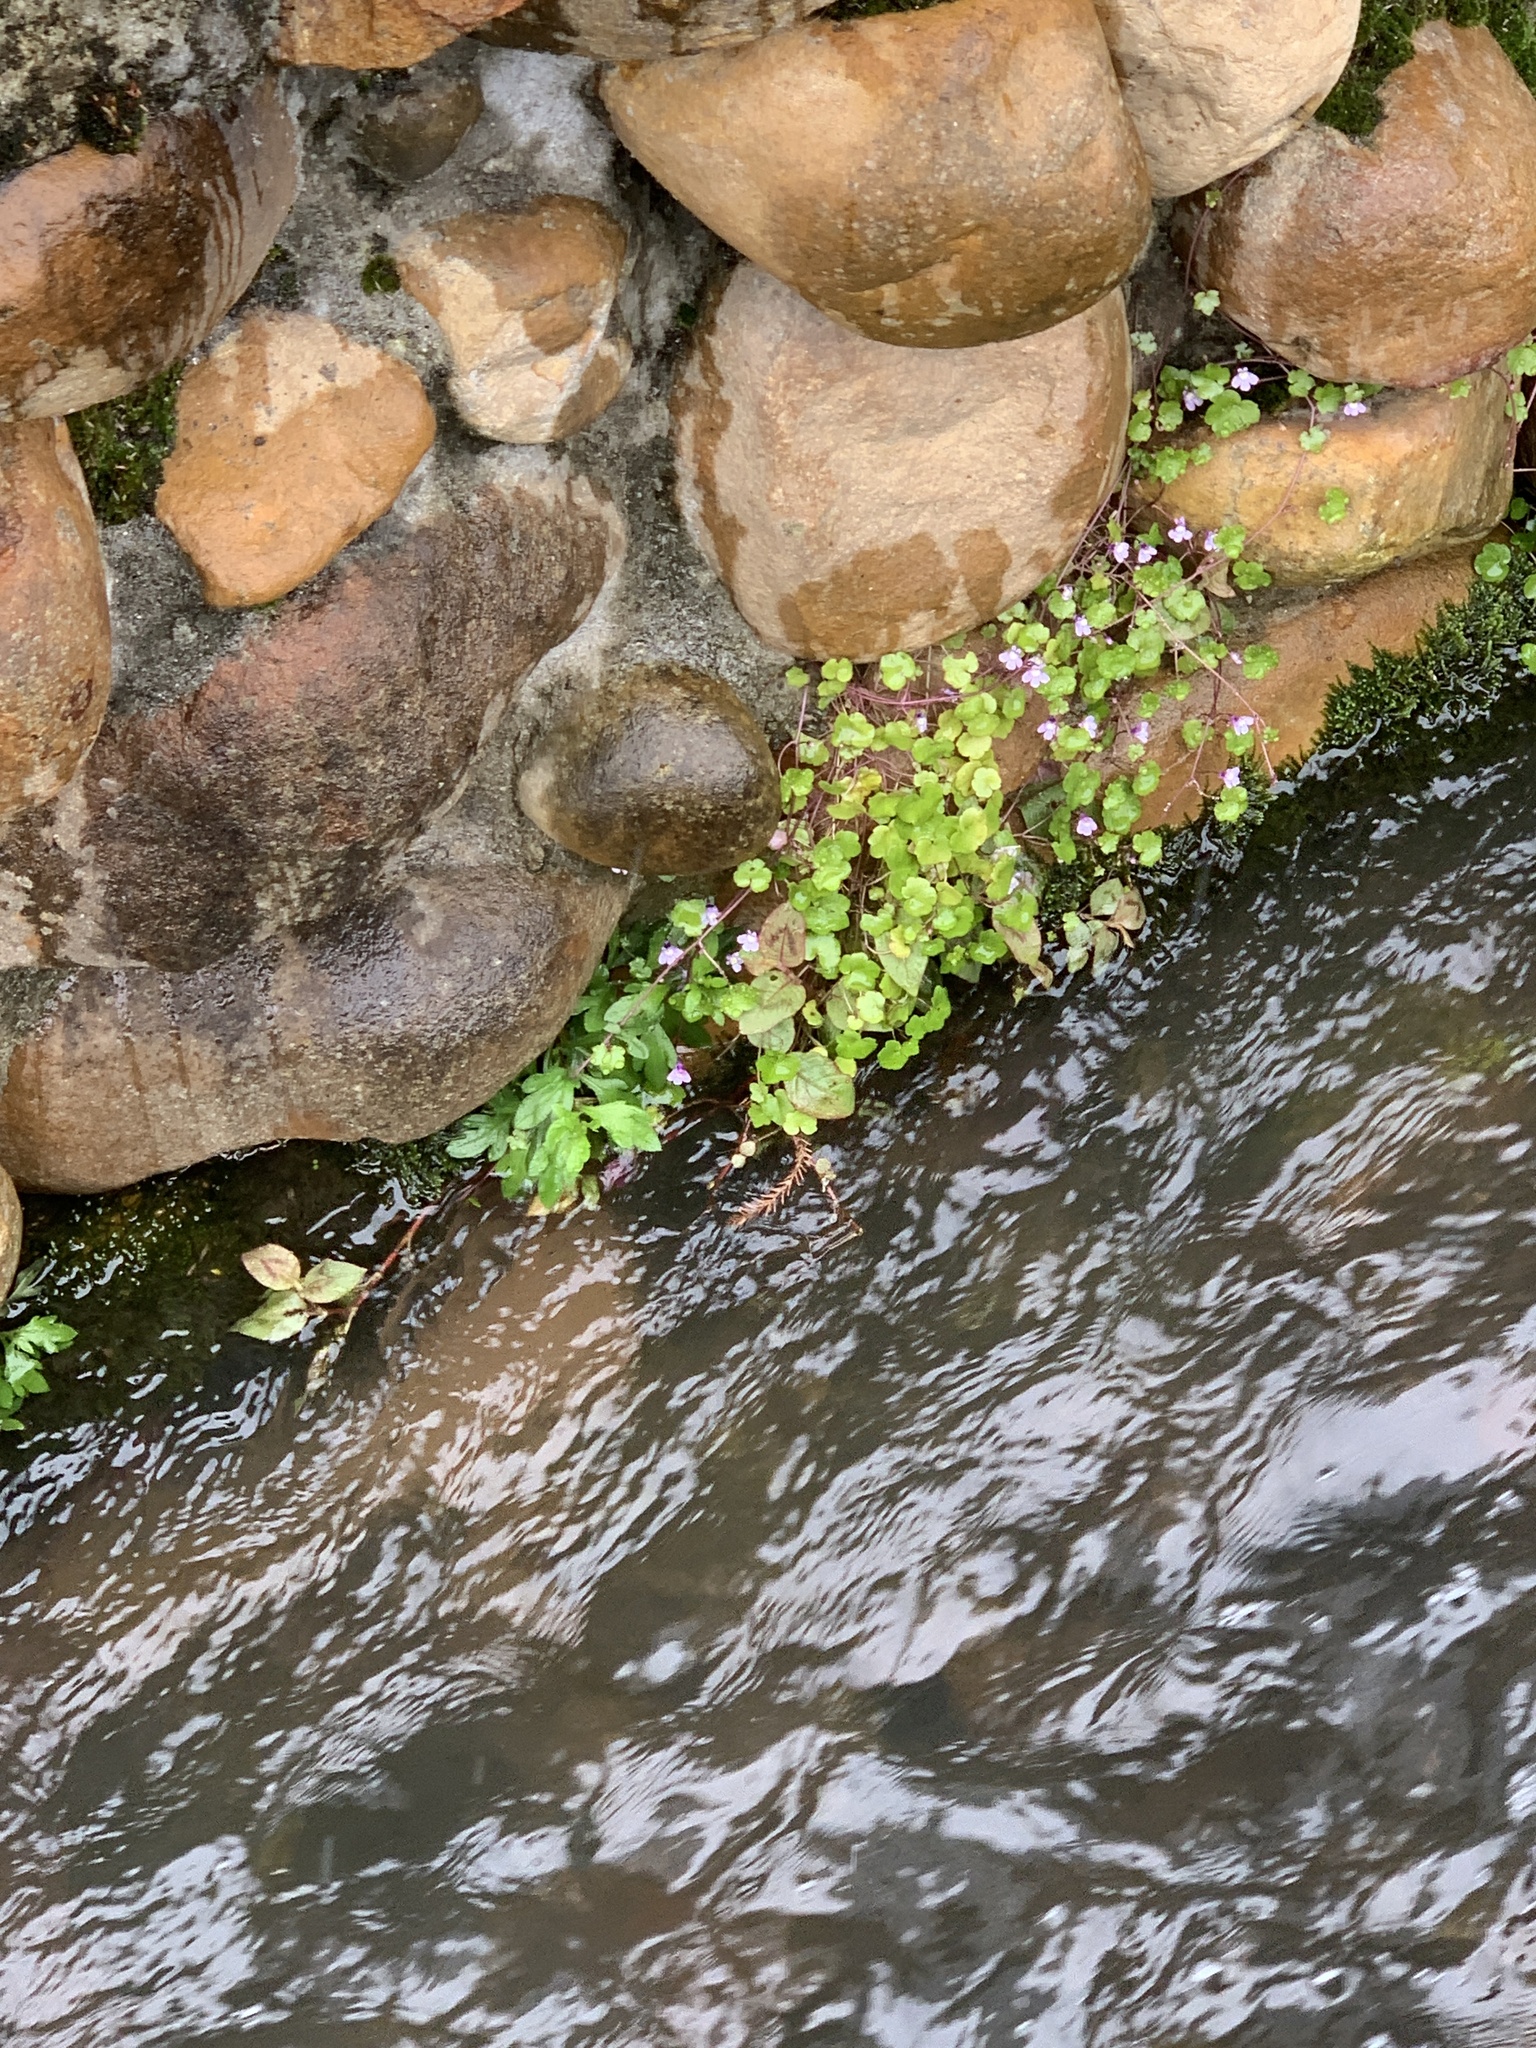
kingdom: Plantae
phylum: Tracheophyta
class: Magnoliopsida
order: Lamiales
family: Plantaginaceae
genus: Cymbalaria
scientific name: Cymbalaria muralis
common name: Ivy-leaved toadflax
